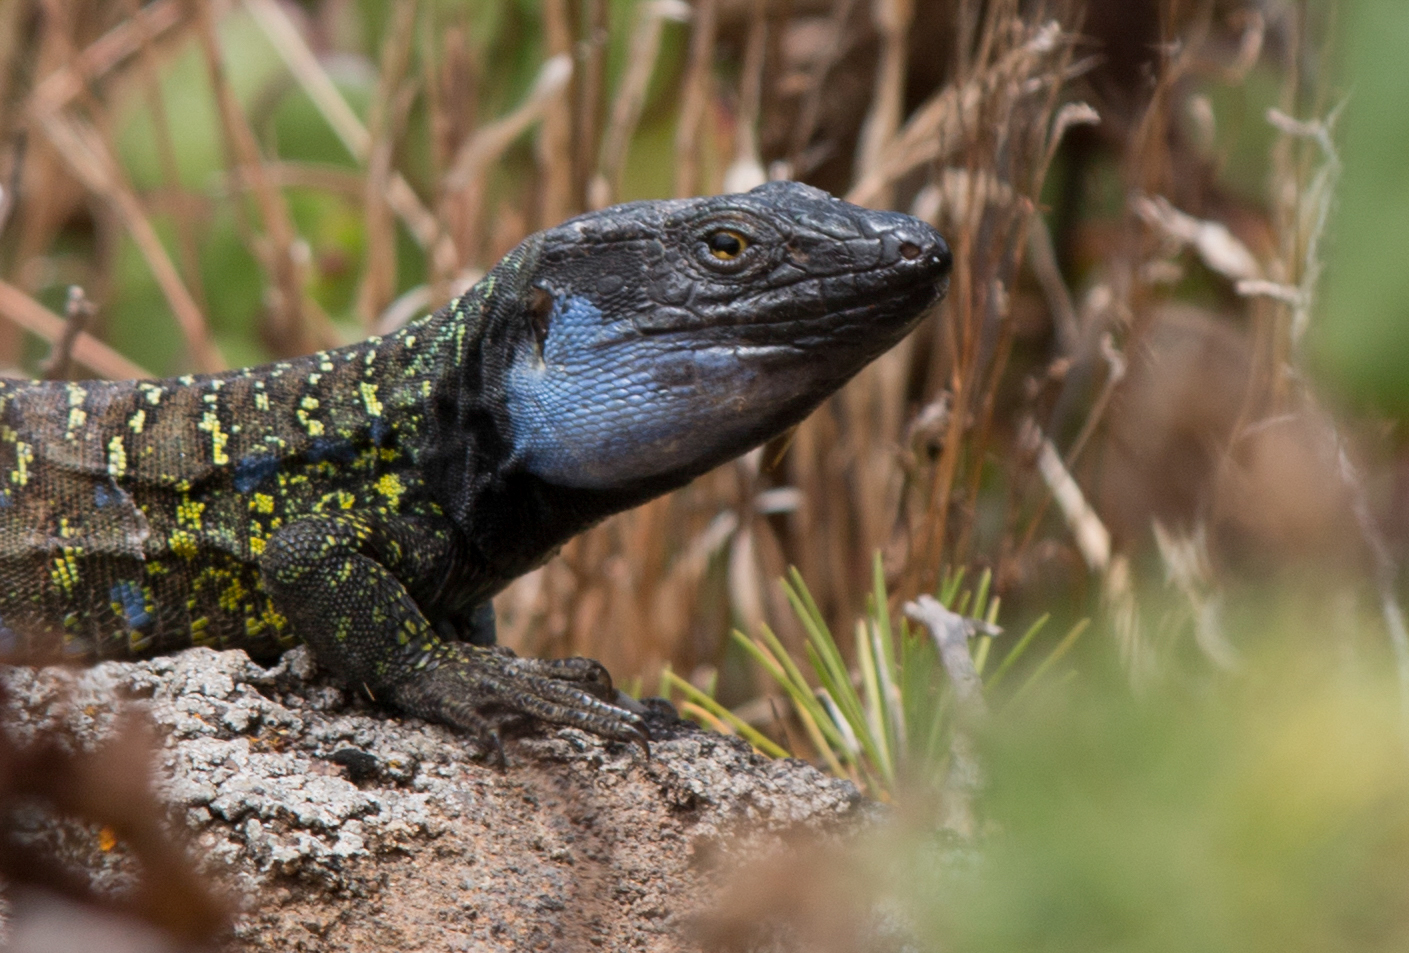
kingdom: Animalia
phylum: Chordata
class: Squamata
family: Lacertidae
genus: Gallotia
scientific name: Gallotia galloti
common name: Gallot's lizard
